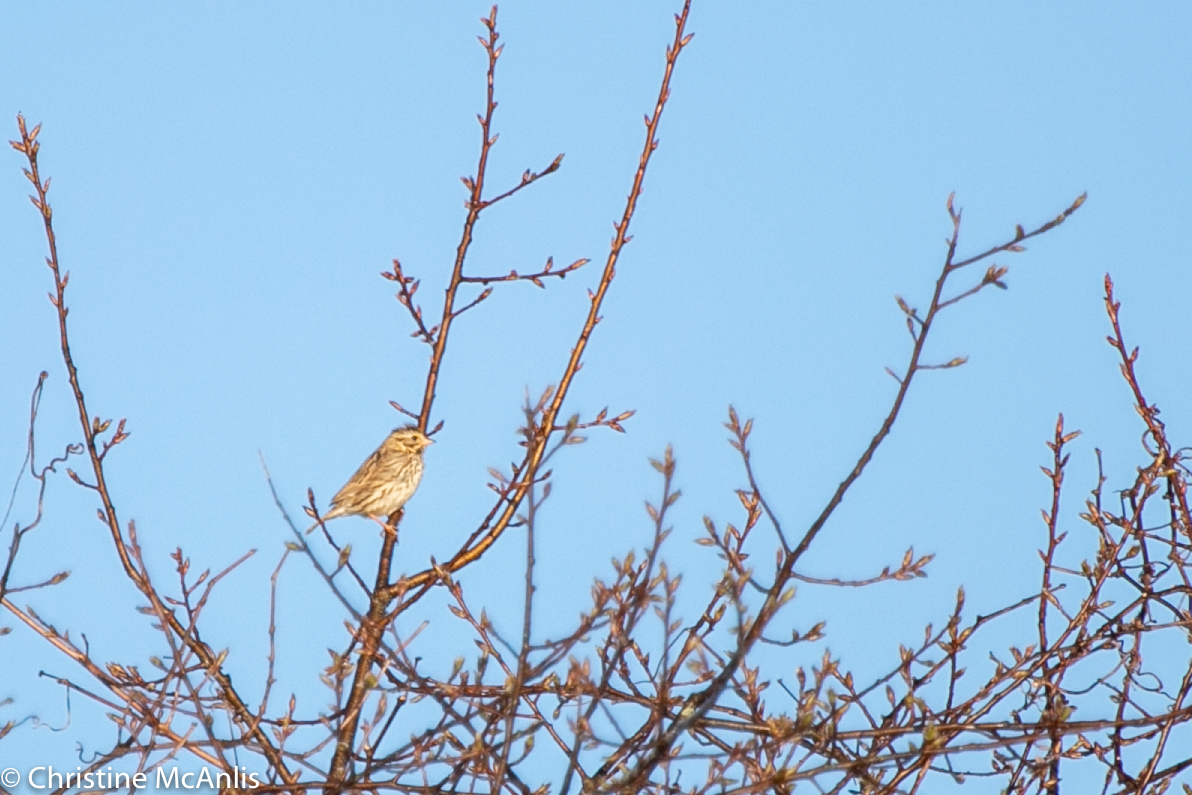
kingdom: Animalia
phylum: Chordata
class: Aves
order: Passeriformes
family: Passerellidae
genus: Melospiza
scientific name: Melospiza melodia
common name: Song sparrow
